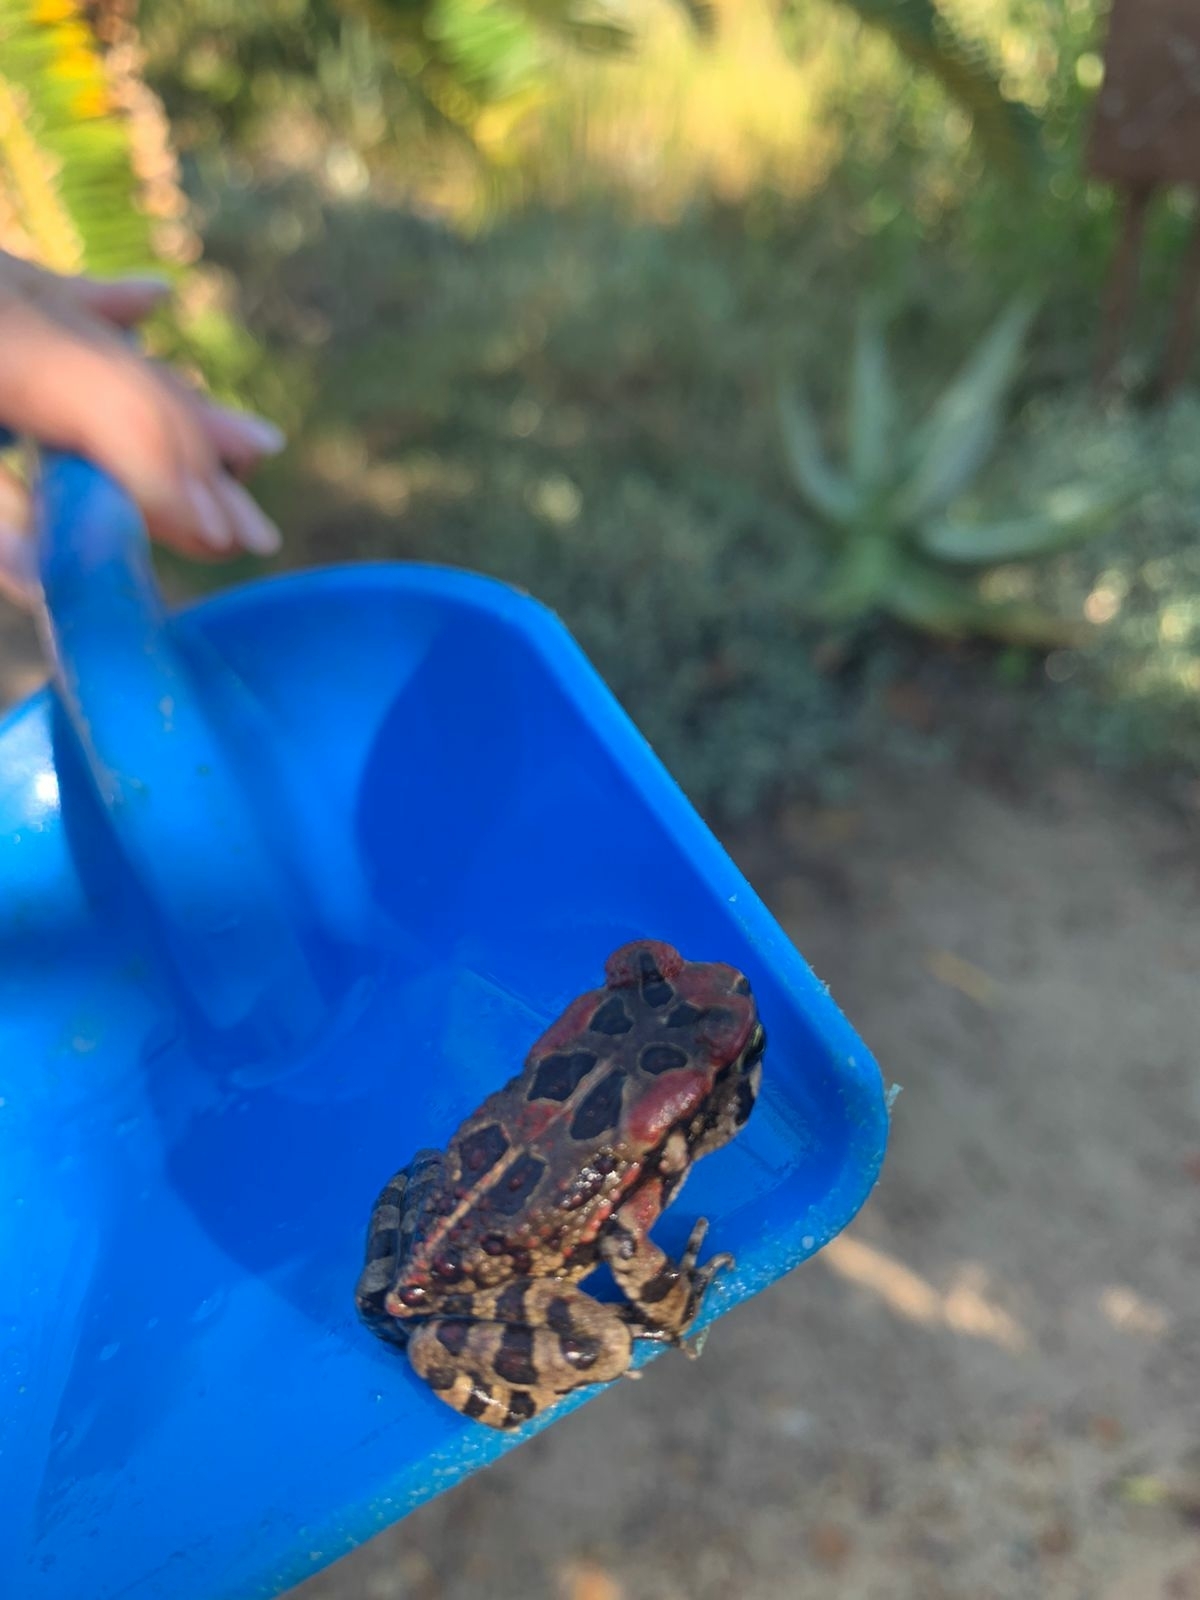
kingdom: Animalia
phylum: Chordata
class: Amphibia
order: Anura
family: Bufonidae
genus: Sclerophrys
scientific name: Sclerophrys capensis
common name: Ranger’s toad
